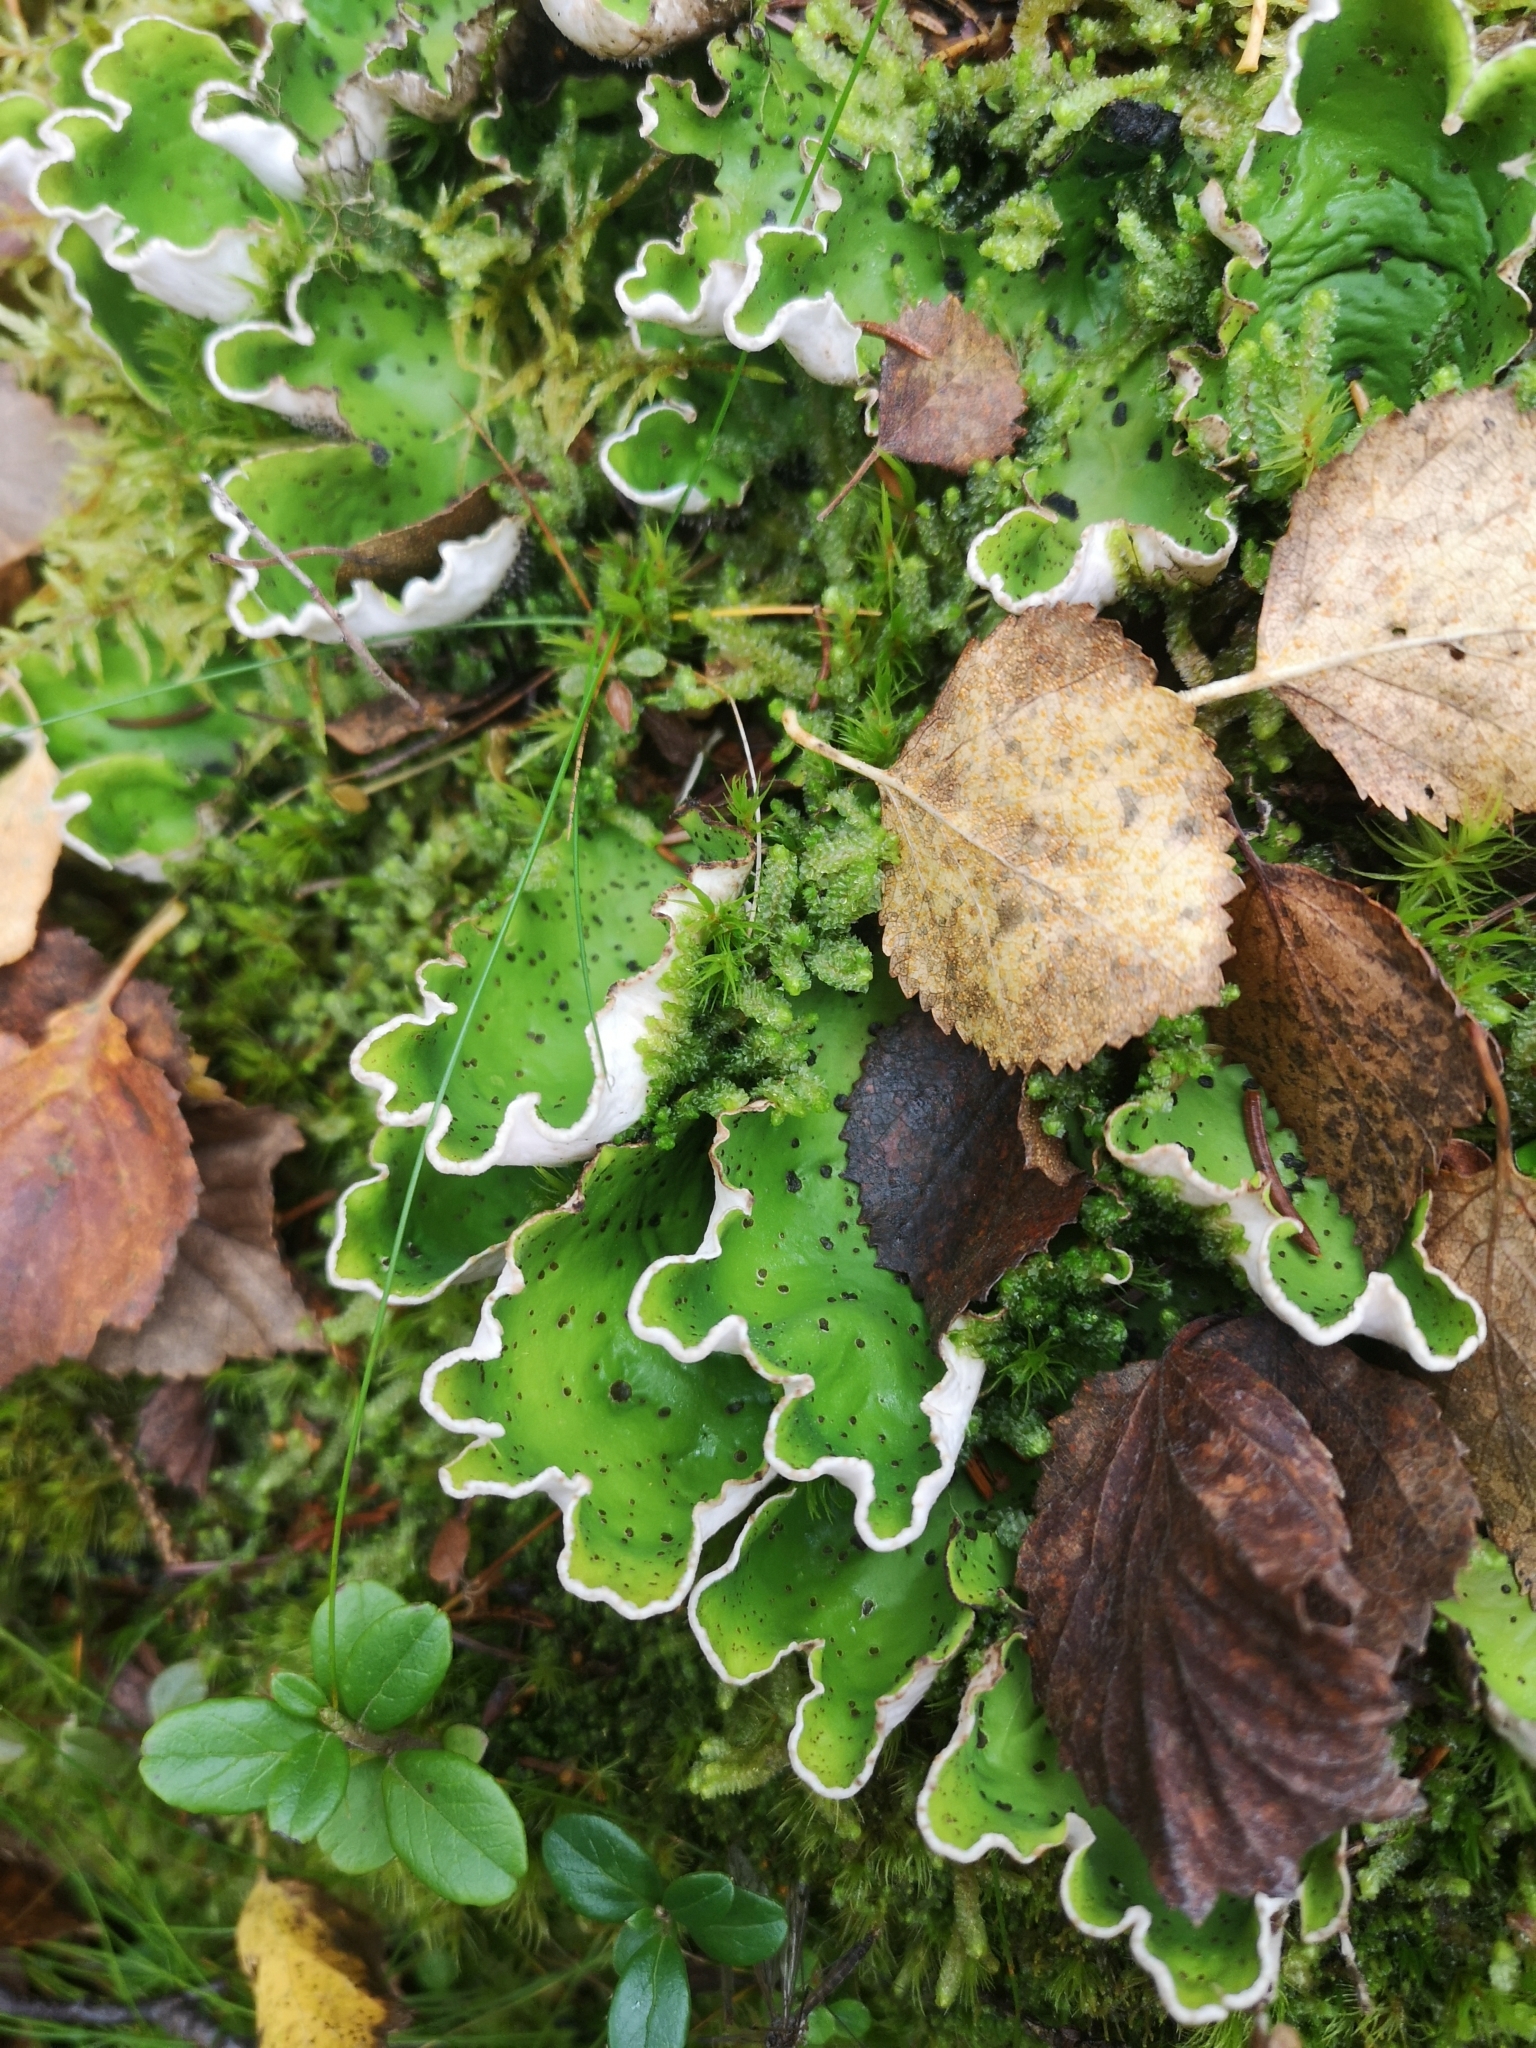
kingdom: Fungi
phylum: Ascomycota
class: Lecanoromycetes
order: Peltigerales
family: Peltigeraceae
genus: Peltigera
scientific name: Peltigera aphthosa
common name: Common freckle pelt lichen
